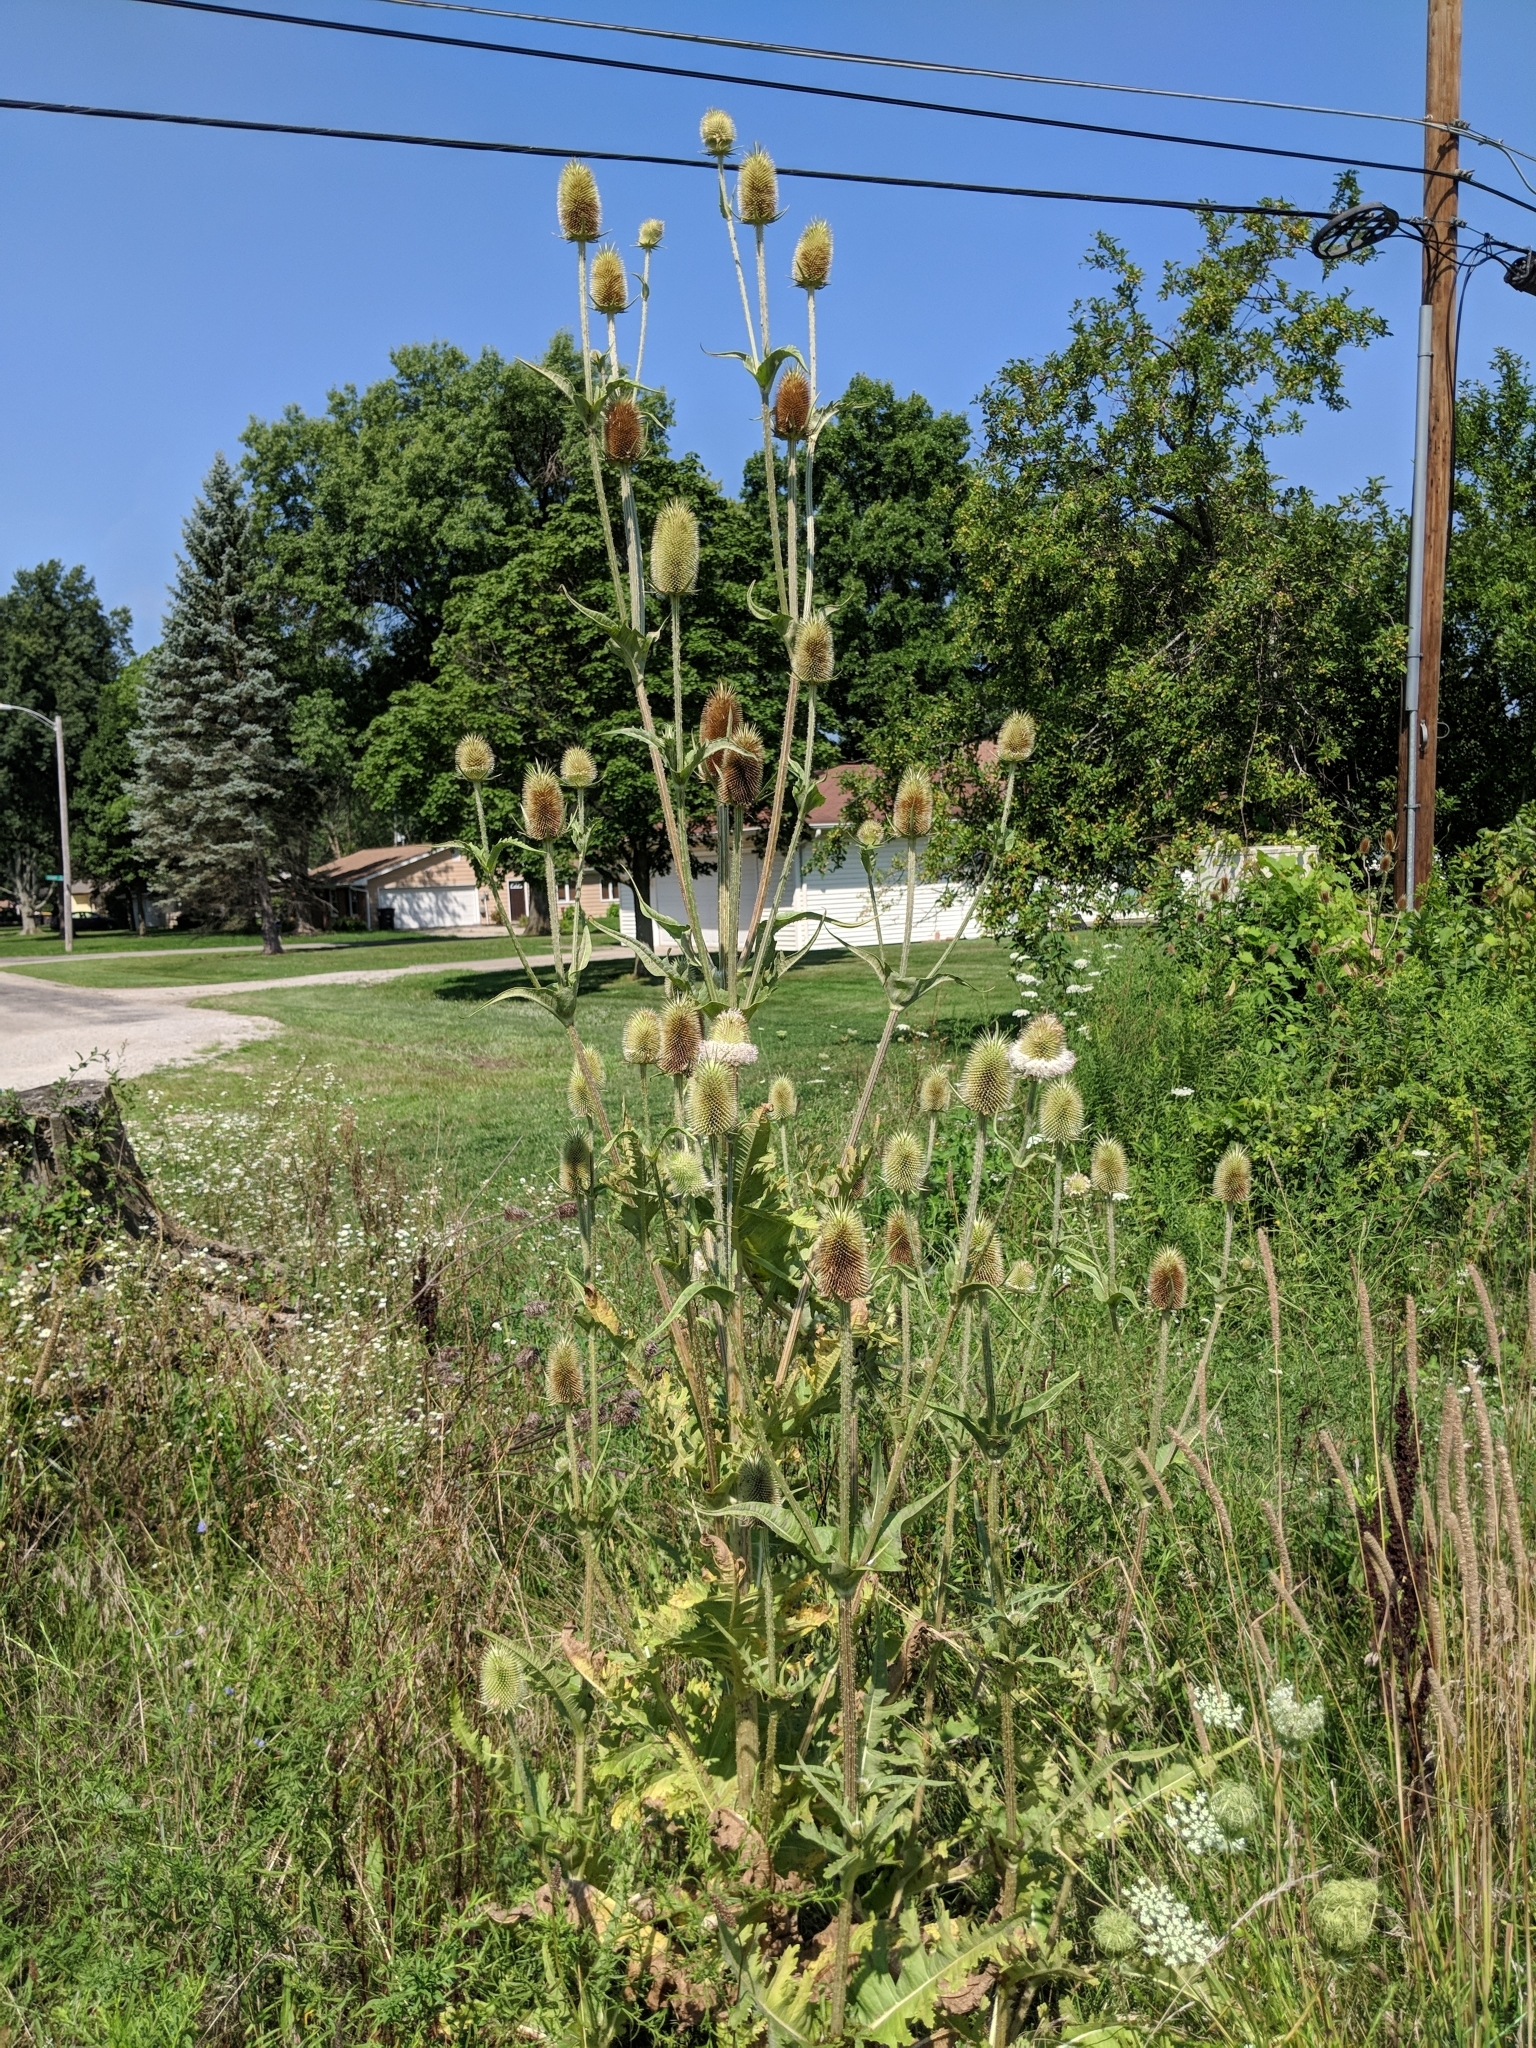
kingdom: Plantae
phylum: Tracheophyta
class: Magnoliopsida
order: Dipsacales
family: Caprifoliaceae
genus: Dipsacus
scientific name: Dipsacus laciniatus
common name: Cut-leaved teasel
